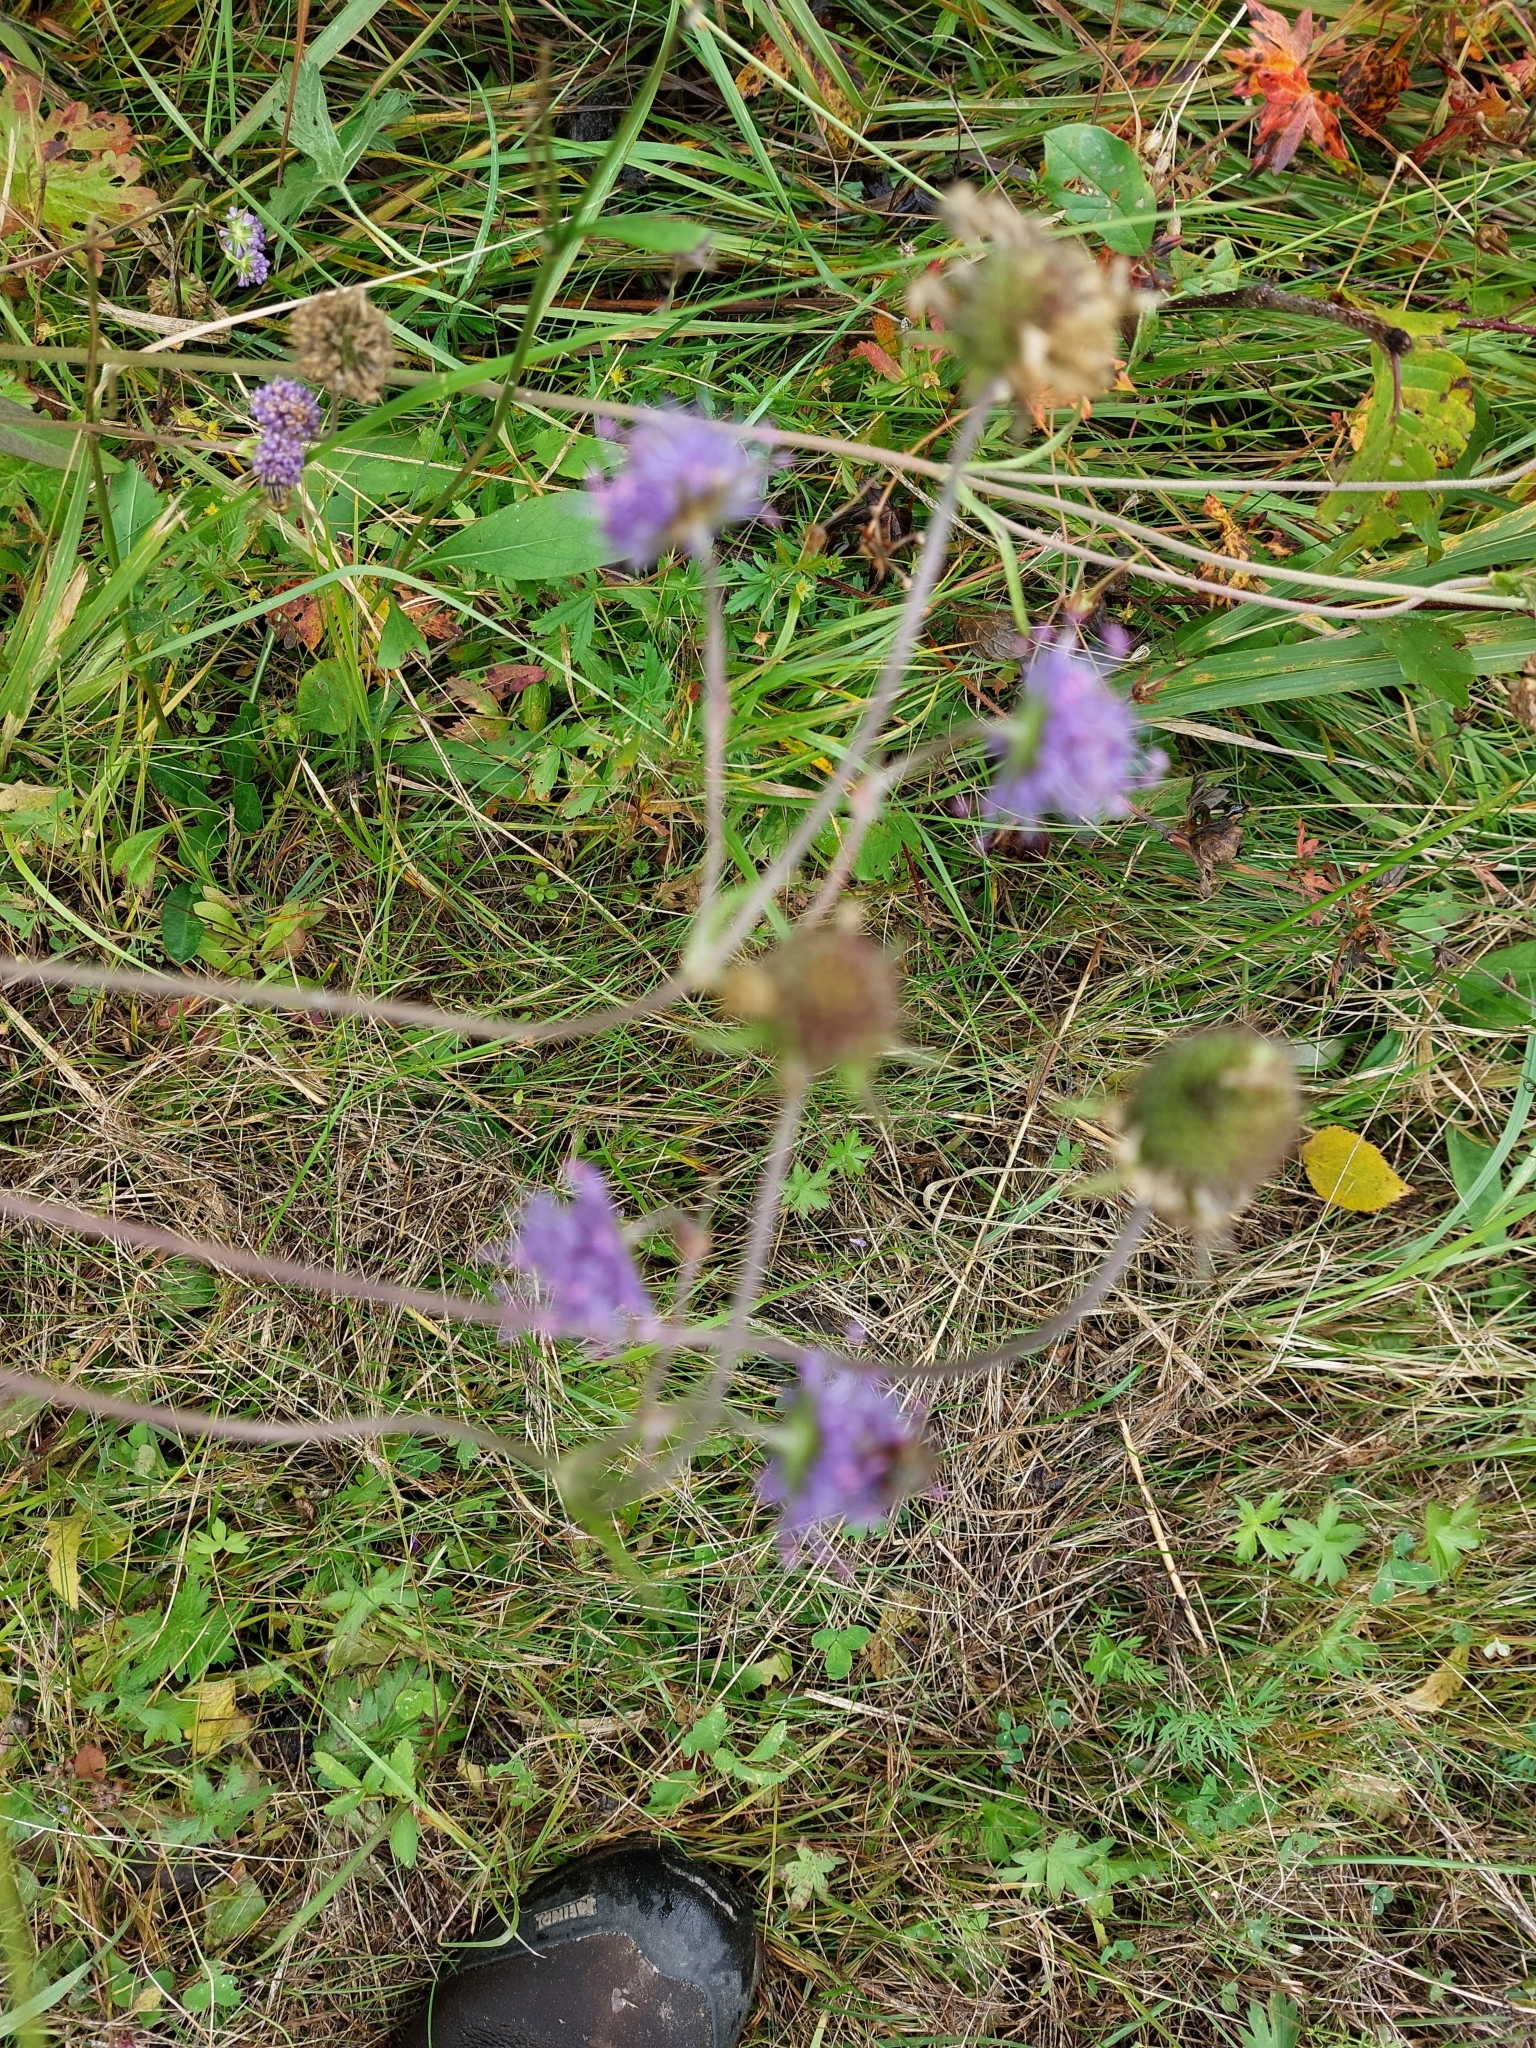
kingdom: Plantae
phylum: Tracheophyta
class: Magnoliopsida
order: Dipsacales
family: Caprifoliaceae
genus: Succisa
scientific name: Succisa pratensis
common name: Devil's-bit
